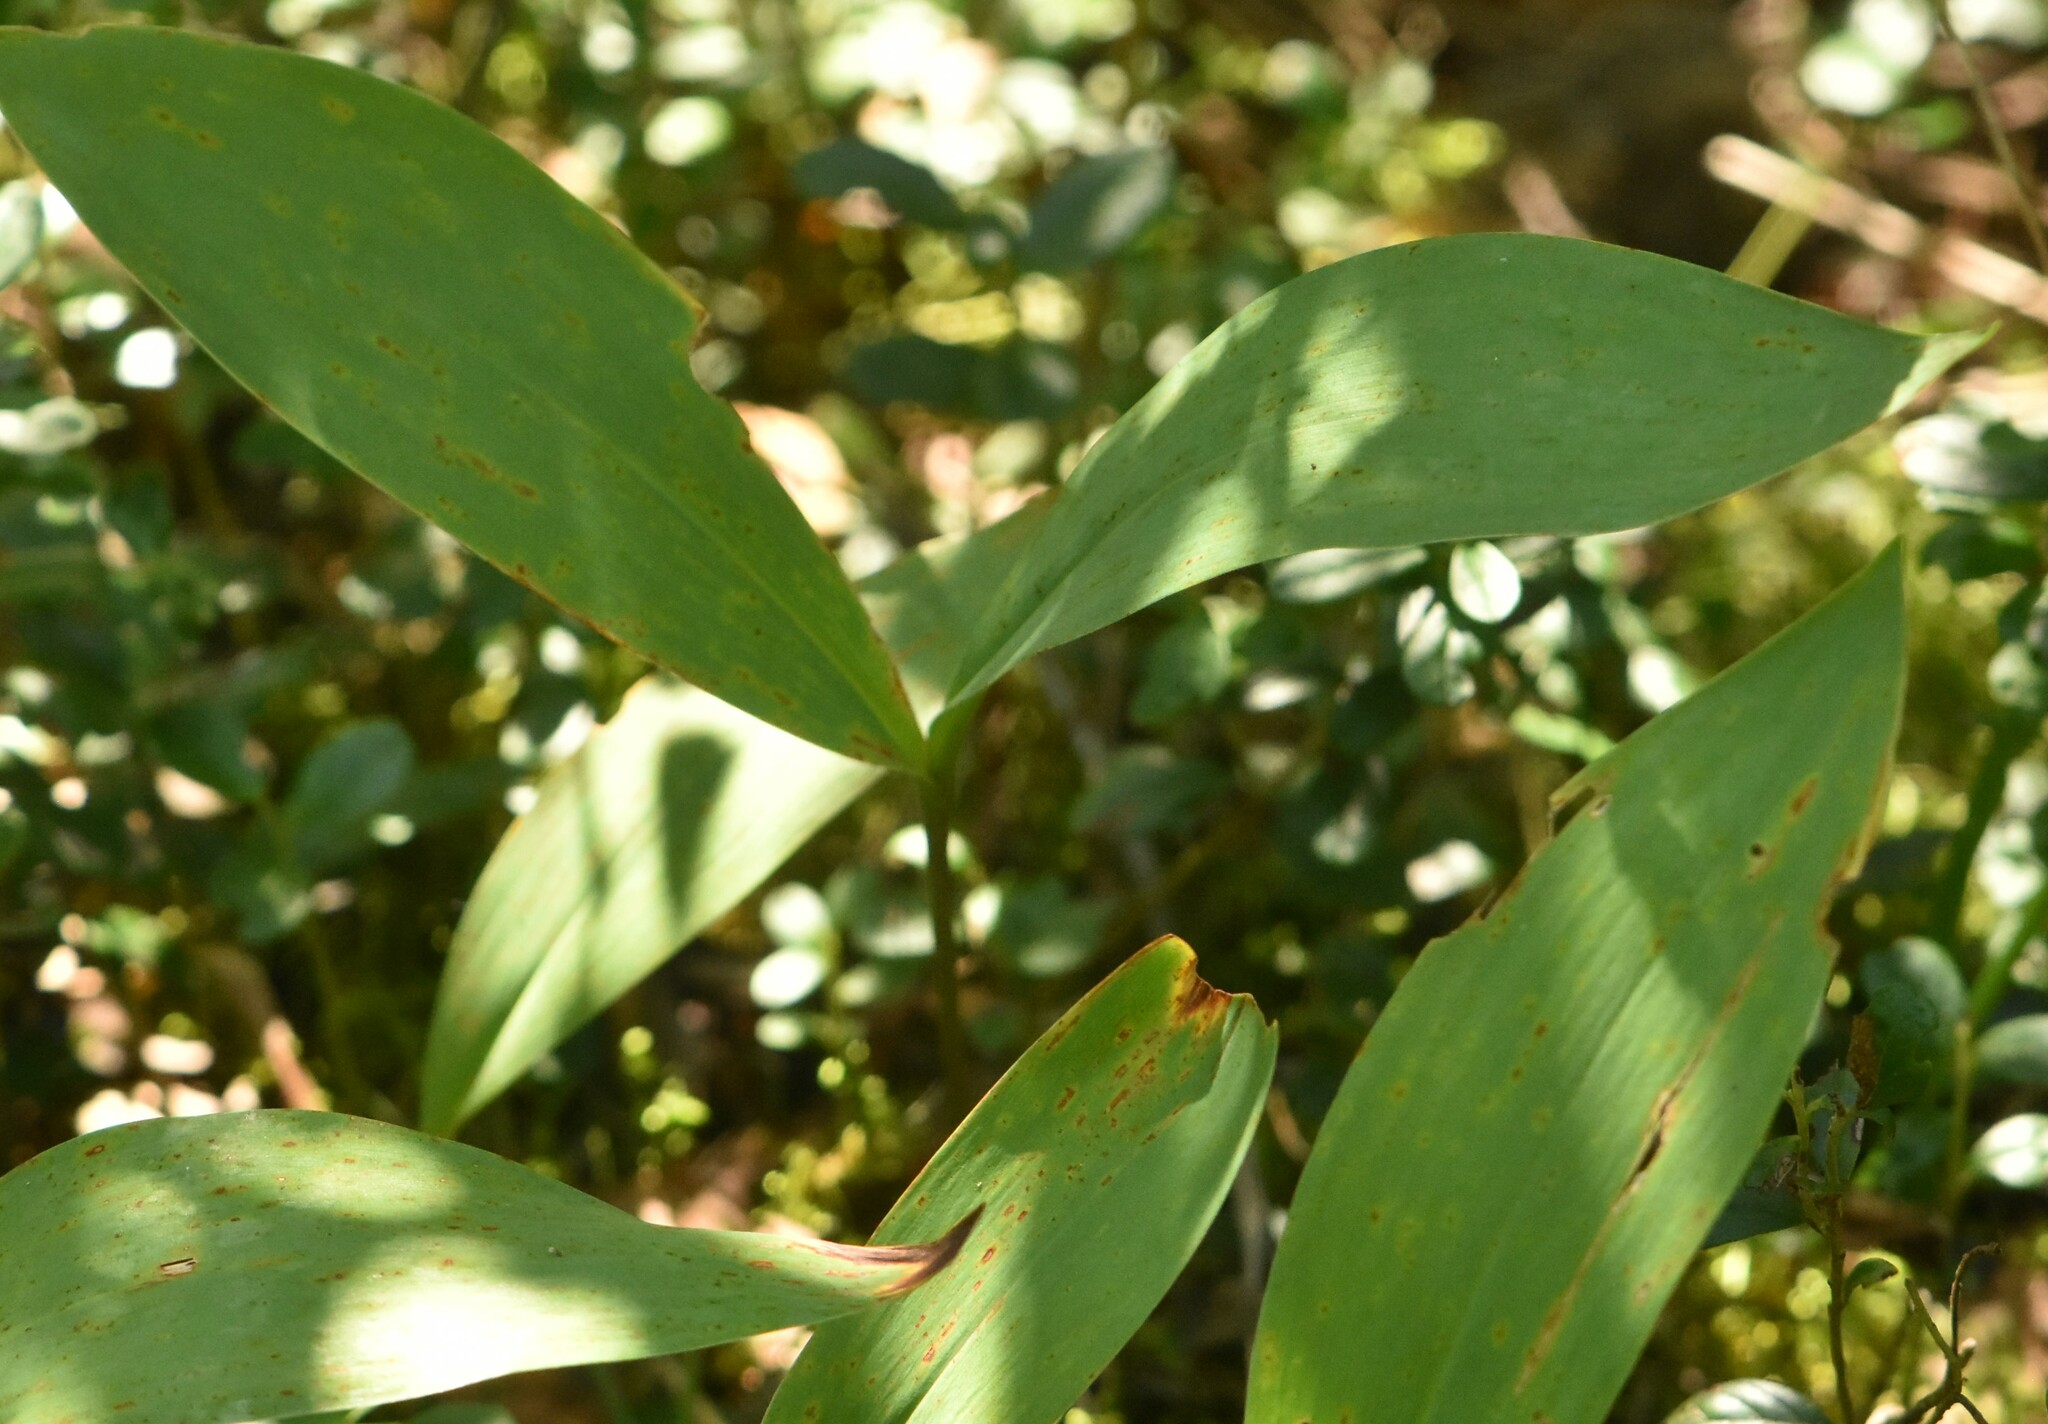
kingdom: Plantae
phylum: Tracheophyta
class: Liliopsida
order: Asparagales
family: Asparagaceae
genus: Convallaria
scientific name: Convallaria majalis
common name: Lily-of-the-valley
